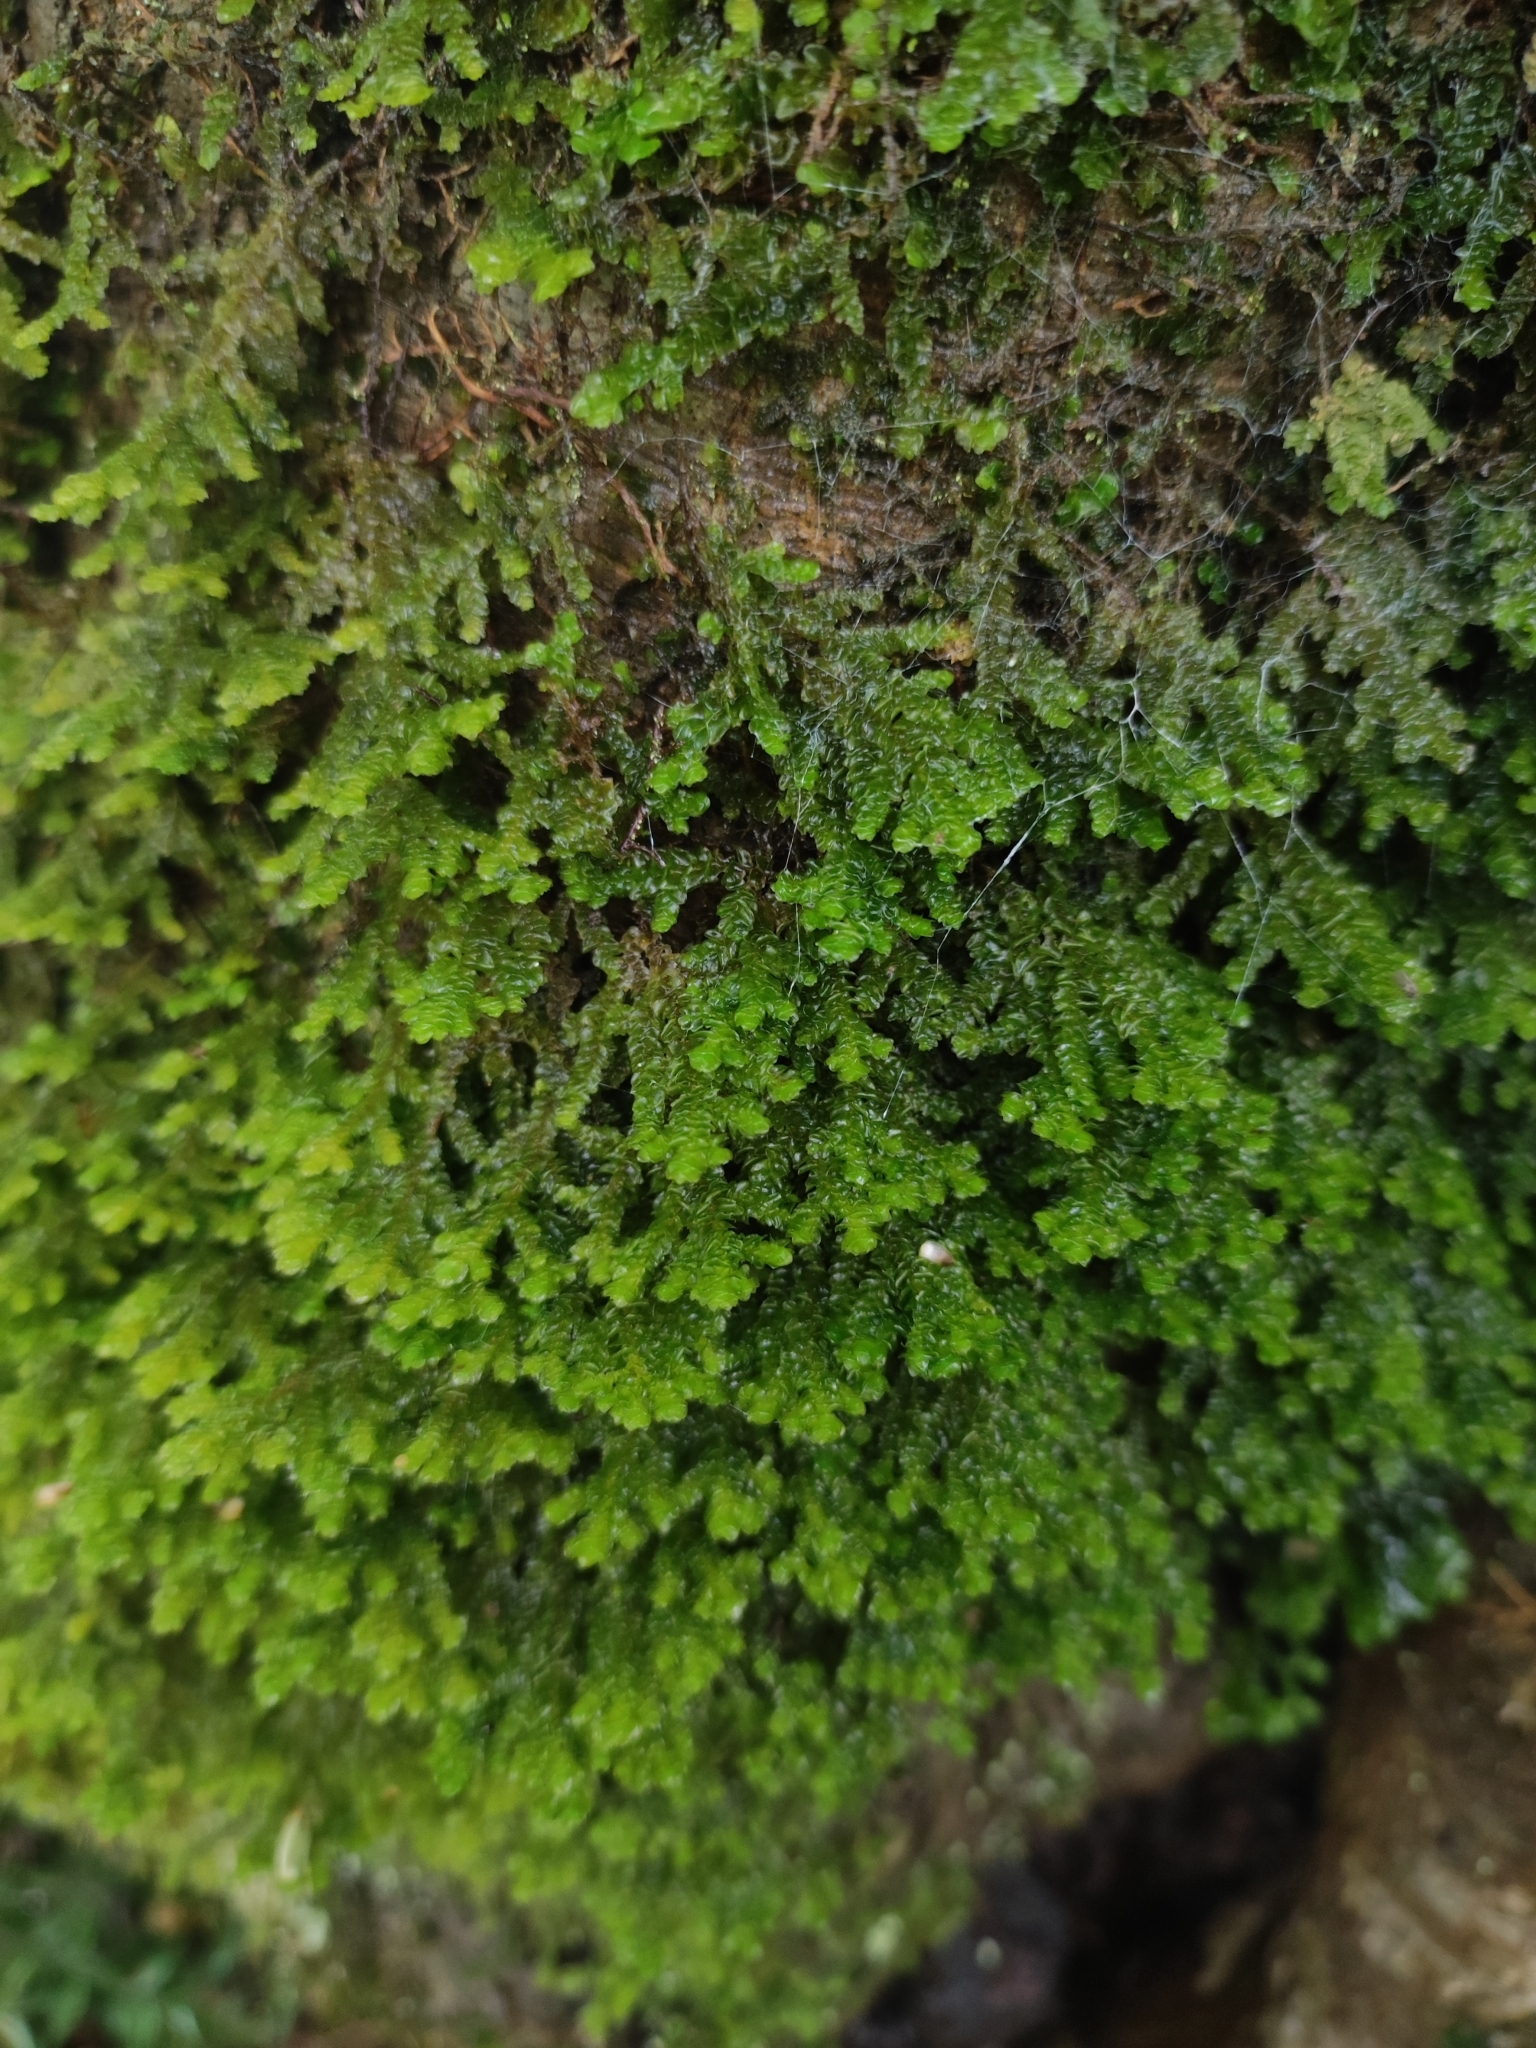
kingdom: Plantae
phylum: Marchantiophyta
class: Jungermanniopsida
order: Porellales
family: Porellaceae
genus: Porella
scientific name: Porella platyphylla
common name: Wall scalewort
